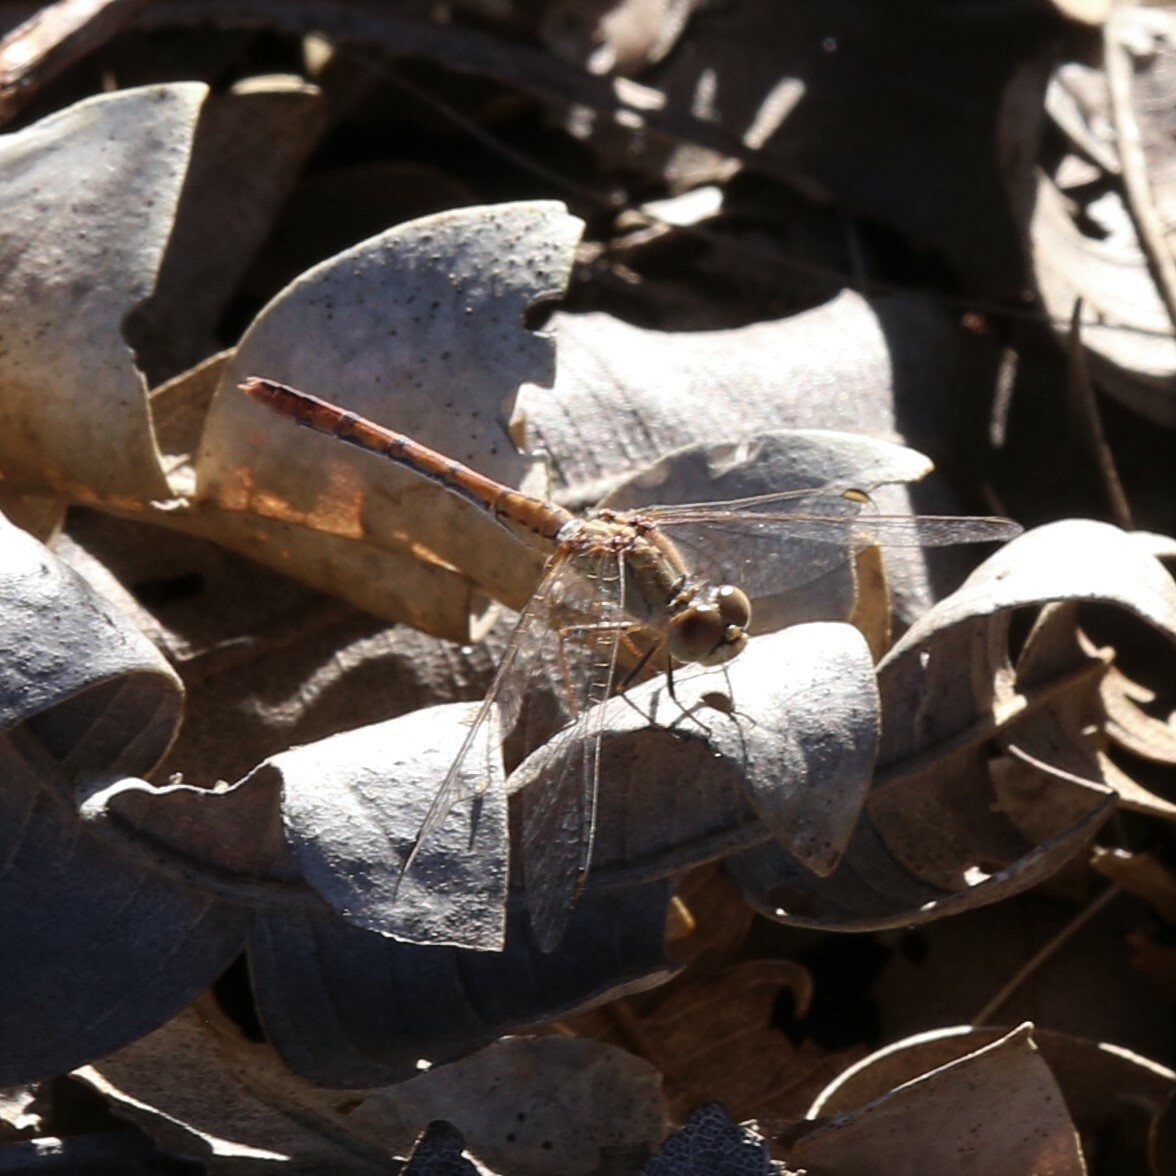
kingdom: Animalia
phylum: Arthropoda
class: Insecta
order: Odonata
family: Libellulidae
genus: Diplacodes
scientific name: Diplacodes bipunctata
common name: Red percher dragonfly
